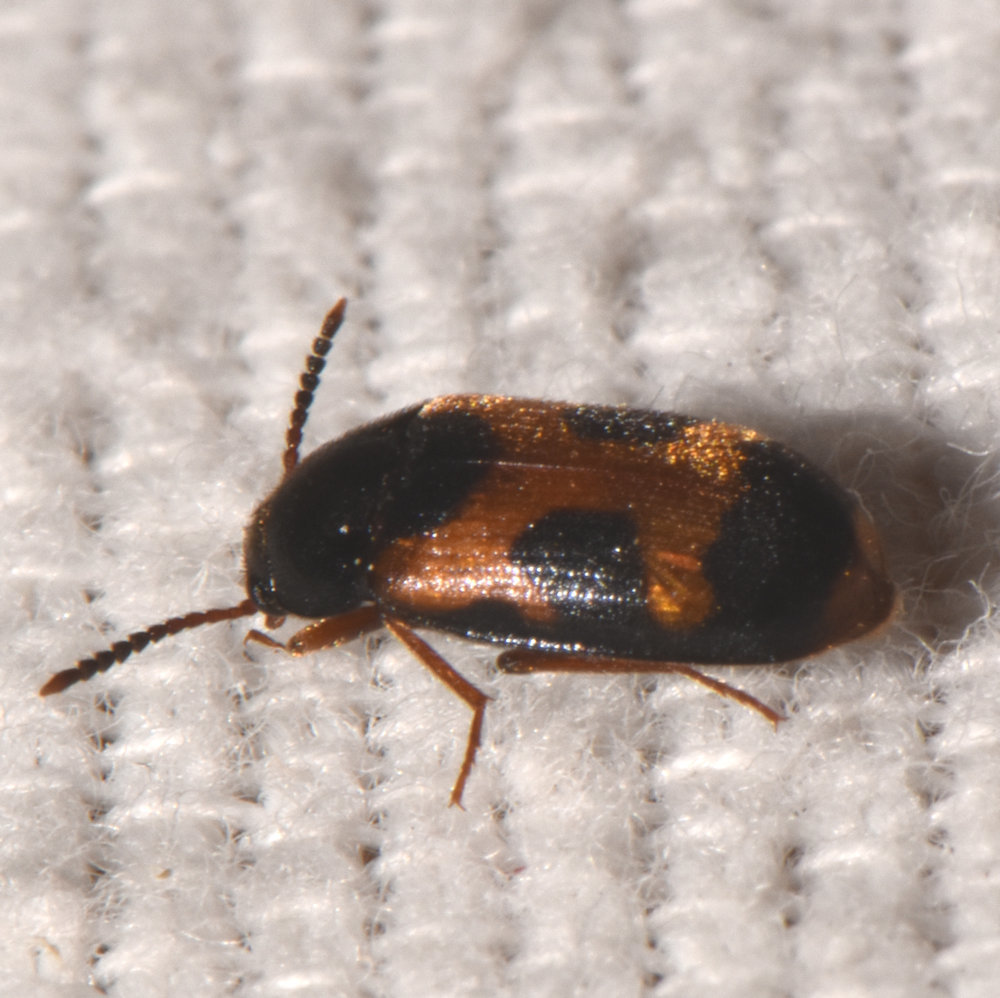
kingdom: Animalia
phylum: Arthropoda
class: Insecta
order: Coleoptera
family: Mycetophagidae
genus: Mycetophagus
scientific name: Mycetophagus punctatus
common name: Hairy fungus beetle
